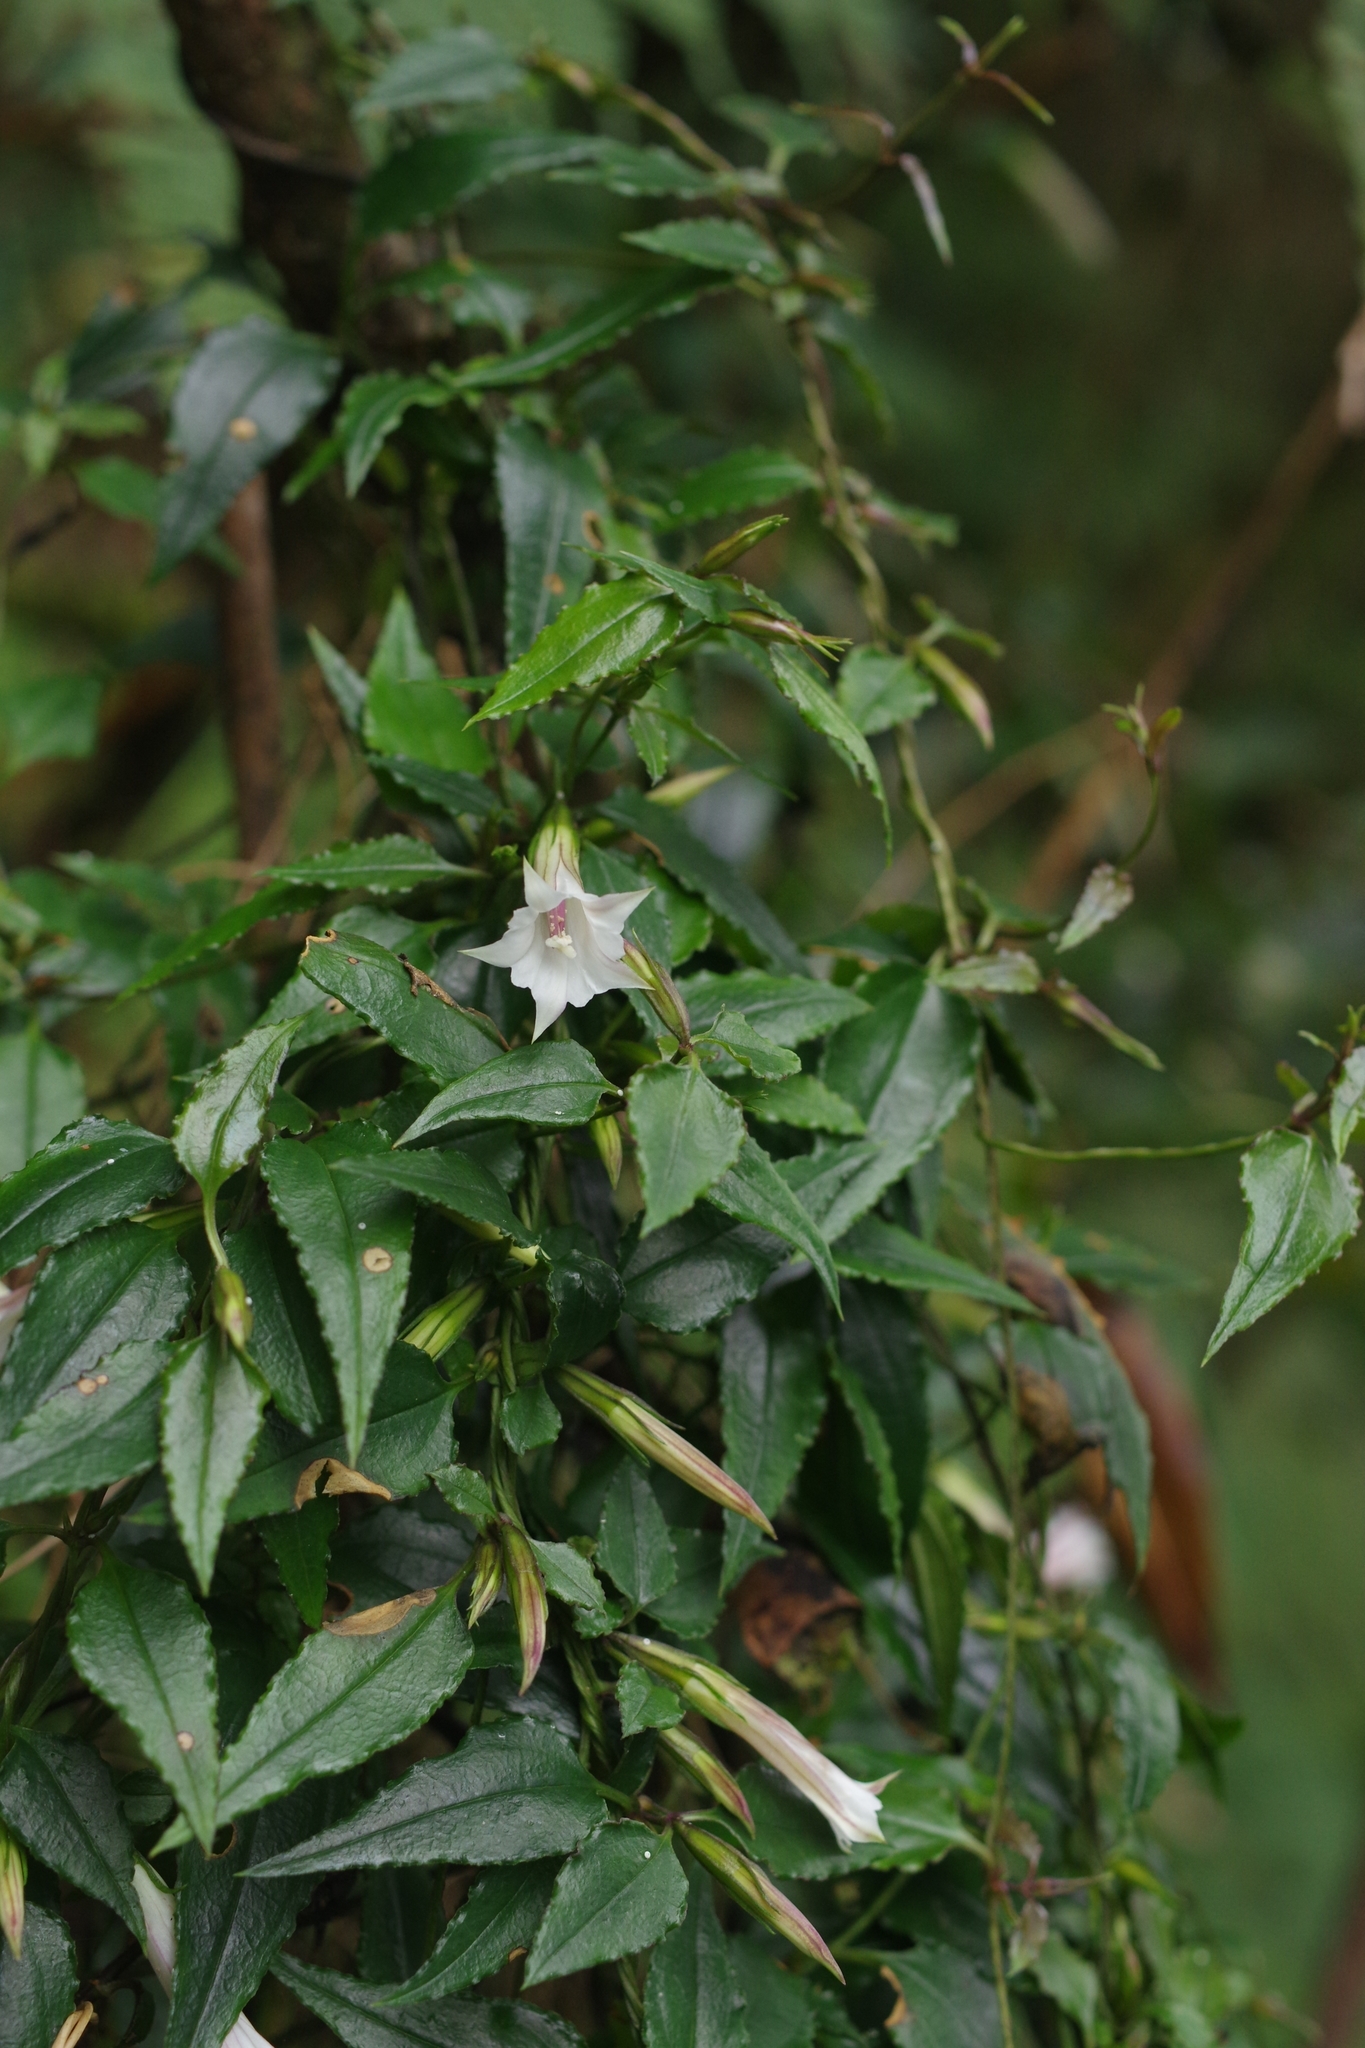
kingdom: Plantae
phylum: Tracheophyta
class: Magnoliopsida
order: Gentianales
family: Gentianaceae
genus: Tripterospermum
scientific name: Tripterospermum luzonense
